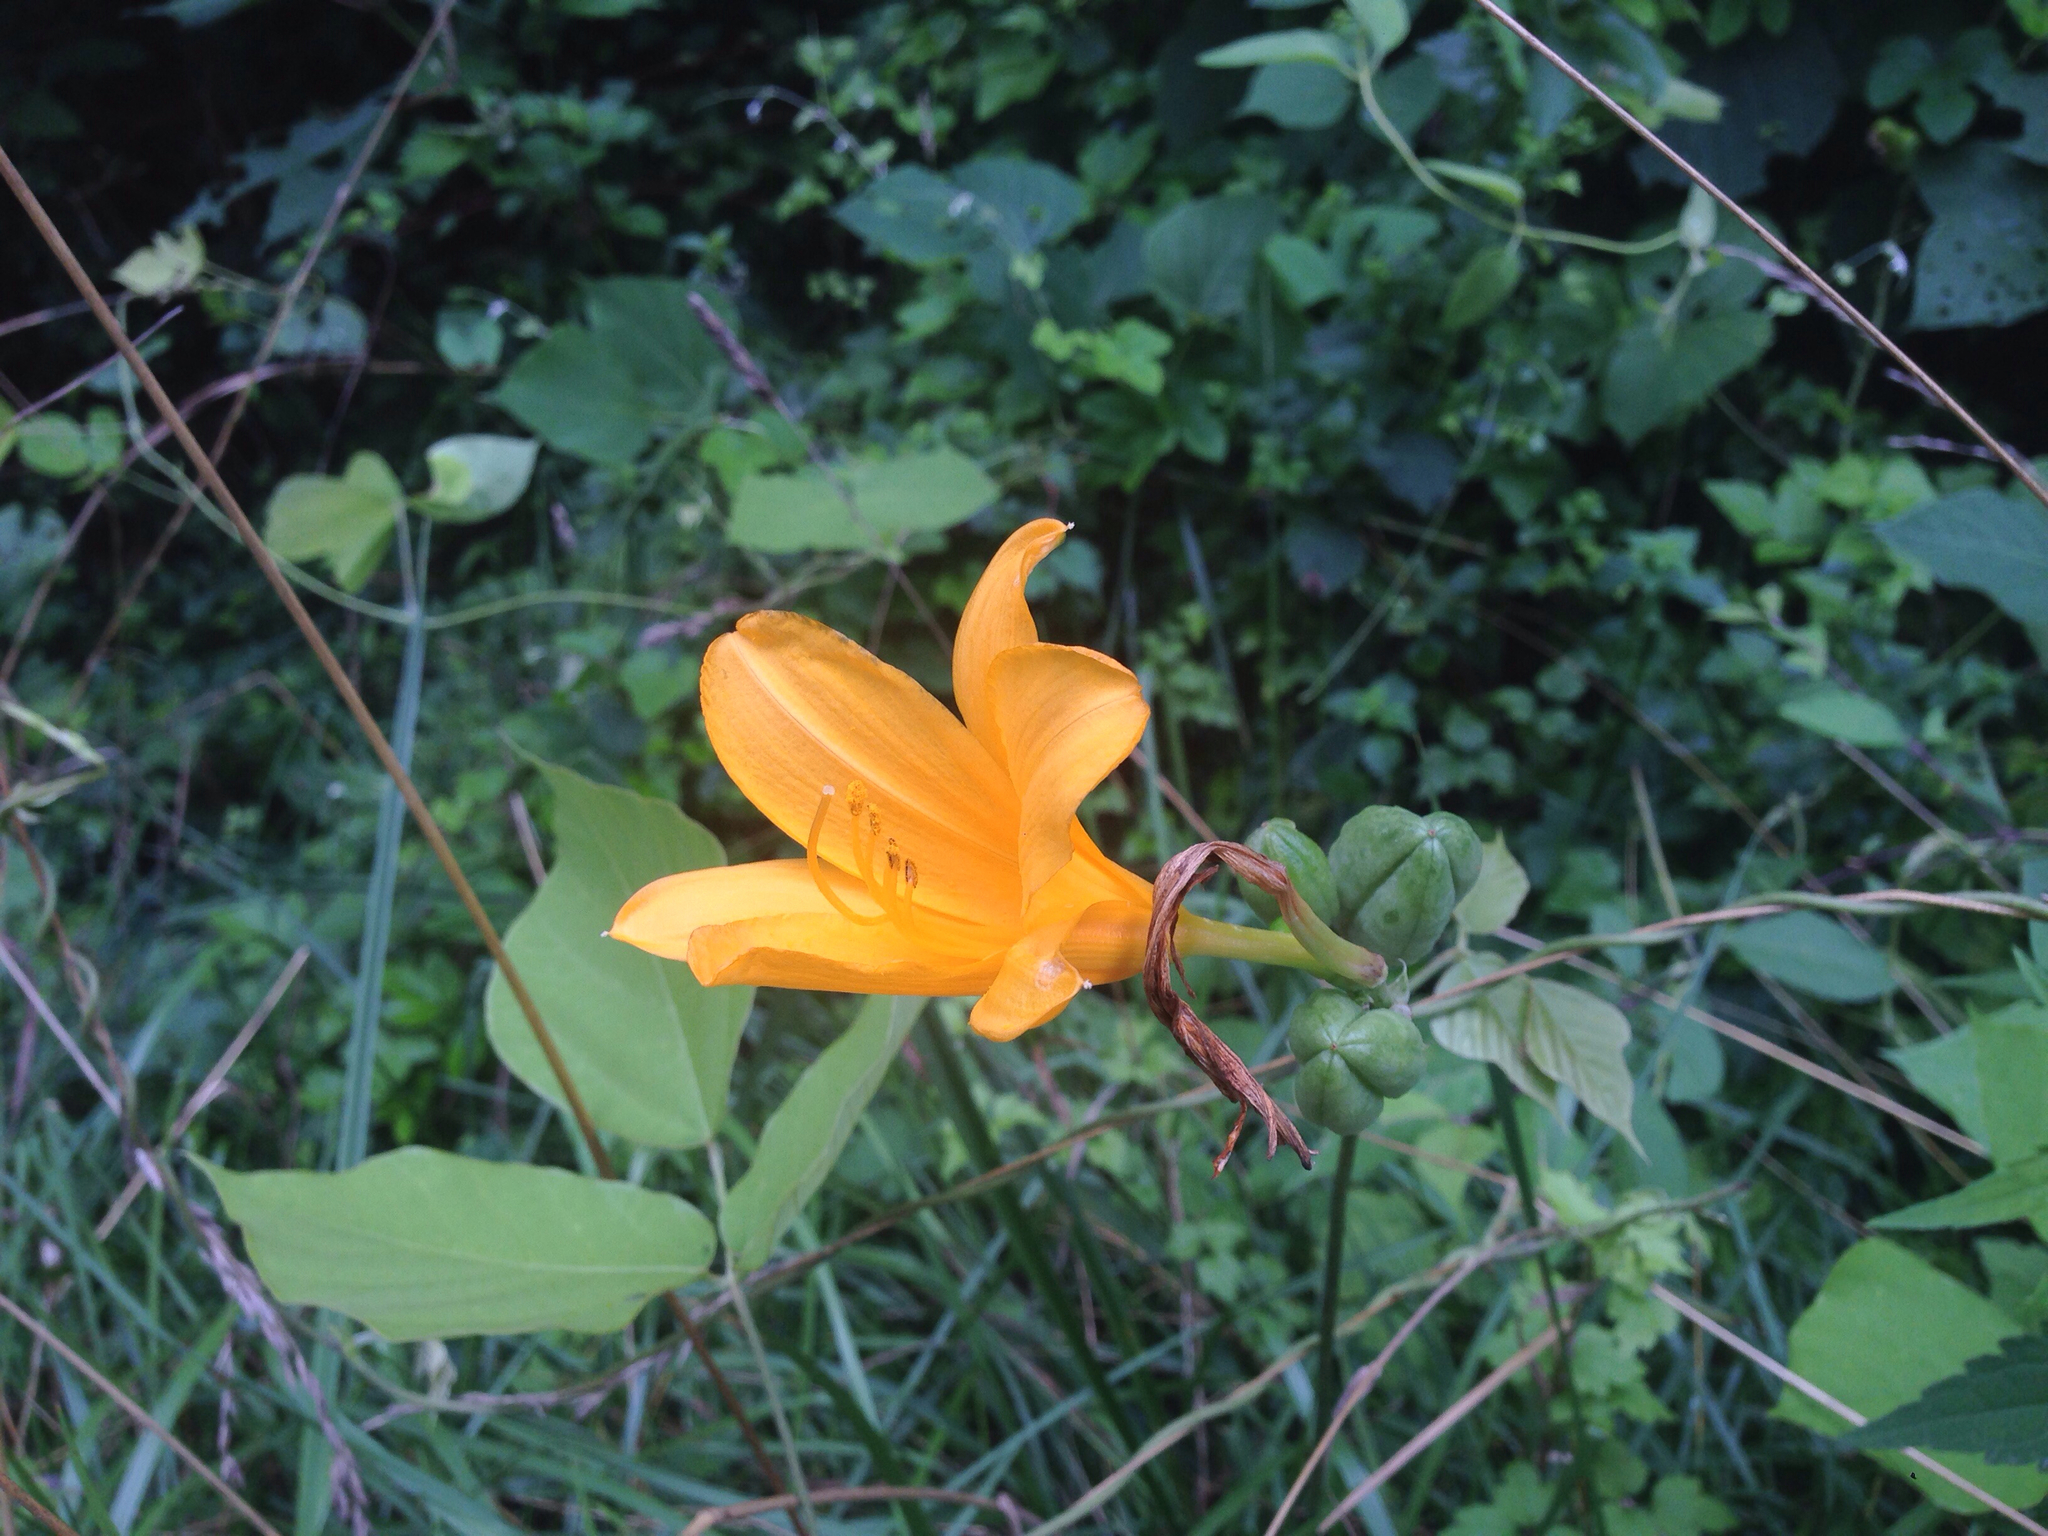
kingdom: Plantae
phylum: Tracheophyta
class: Liliopsida
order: Asparagales
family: Asphodelaceae
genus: Hemerocallis
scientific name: Hemerocallis hakuunensis
